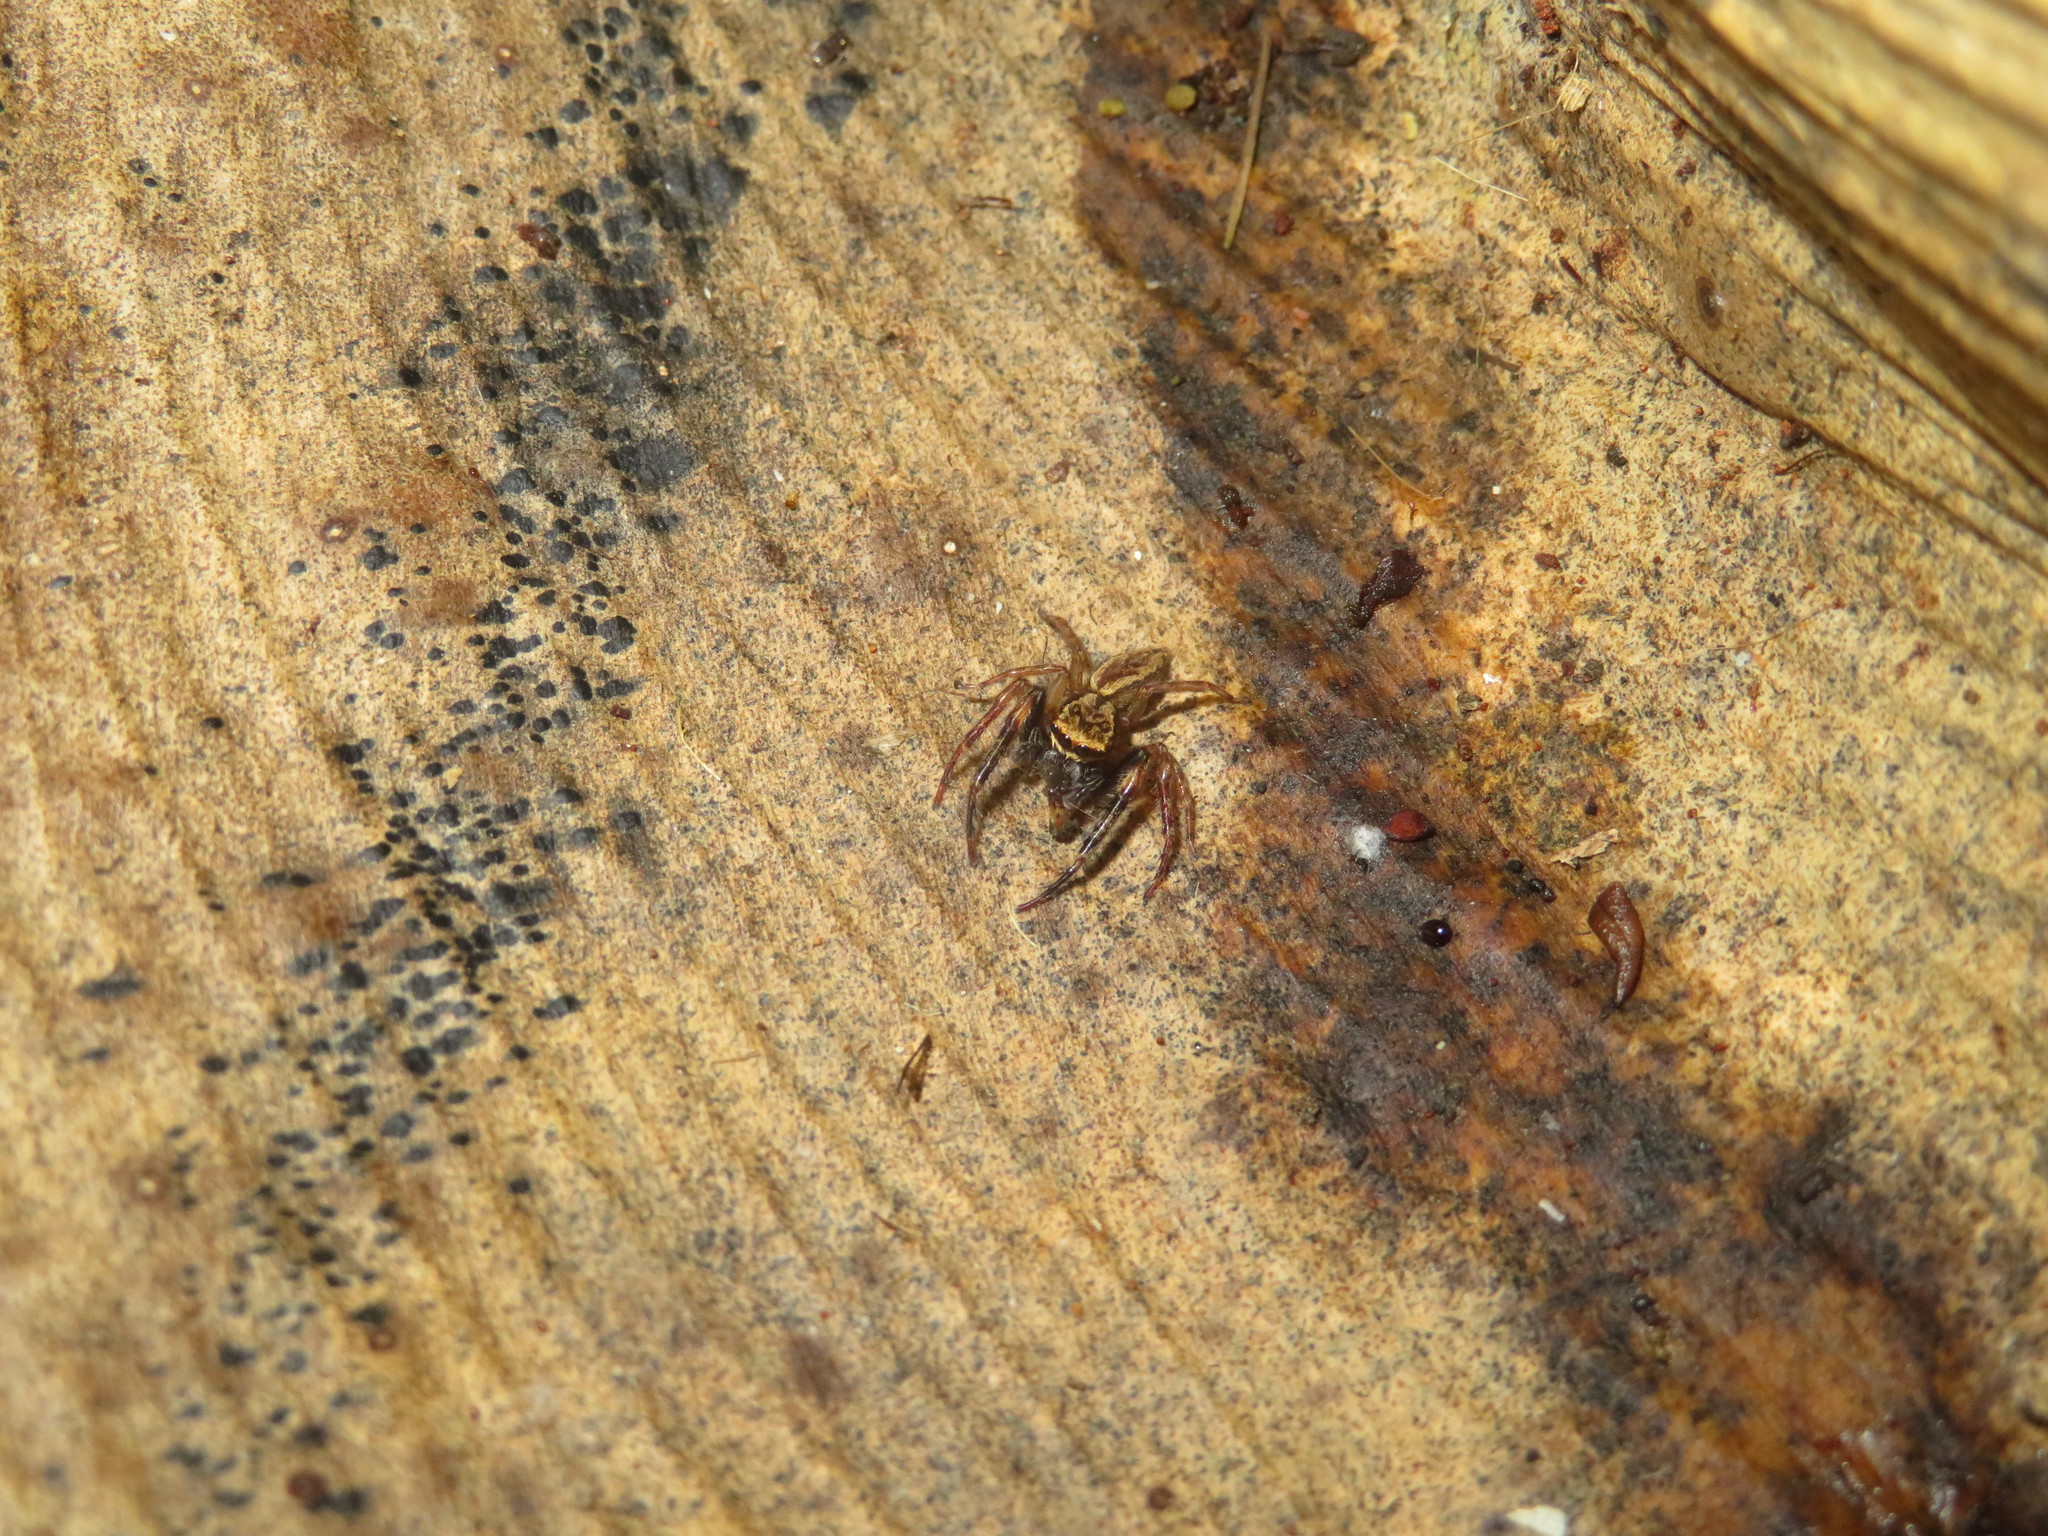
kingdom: Animalia
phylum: Arthropoda
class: Arachnida
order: Araneae
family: Salticidae
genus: Trite
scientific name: Trite auricoma
